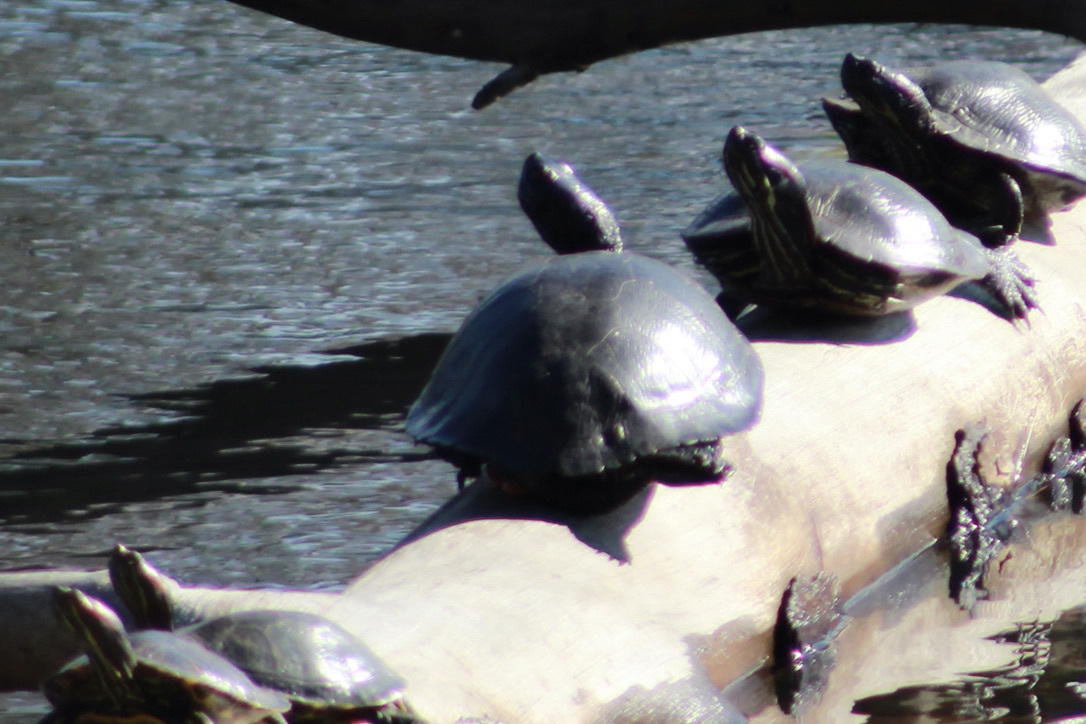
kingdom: Animalia
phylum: Chordata
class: Testudines
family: Emydidae
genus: Trachemys
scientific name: Trachemys scripta
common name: Slider
